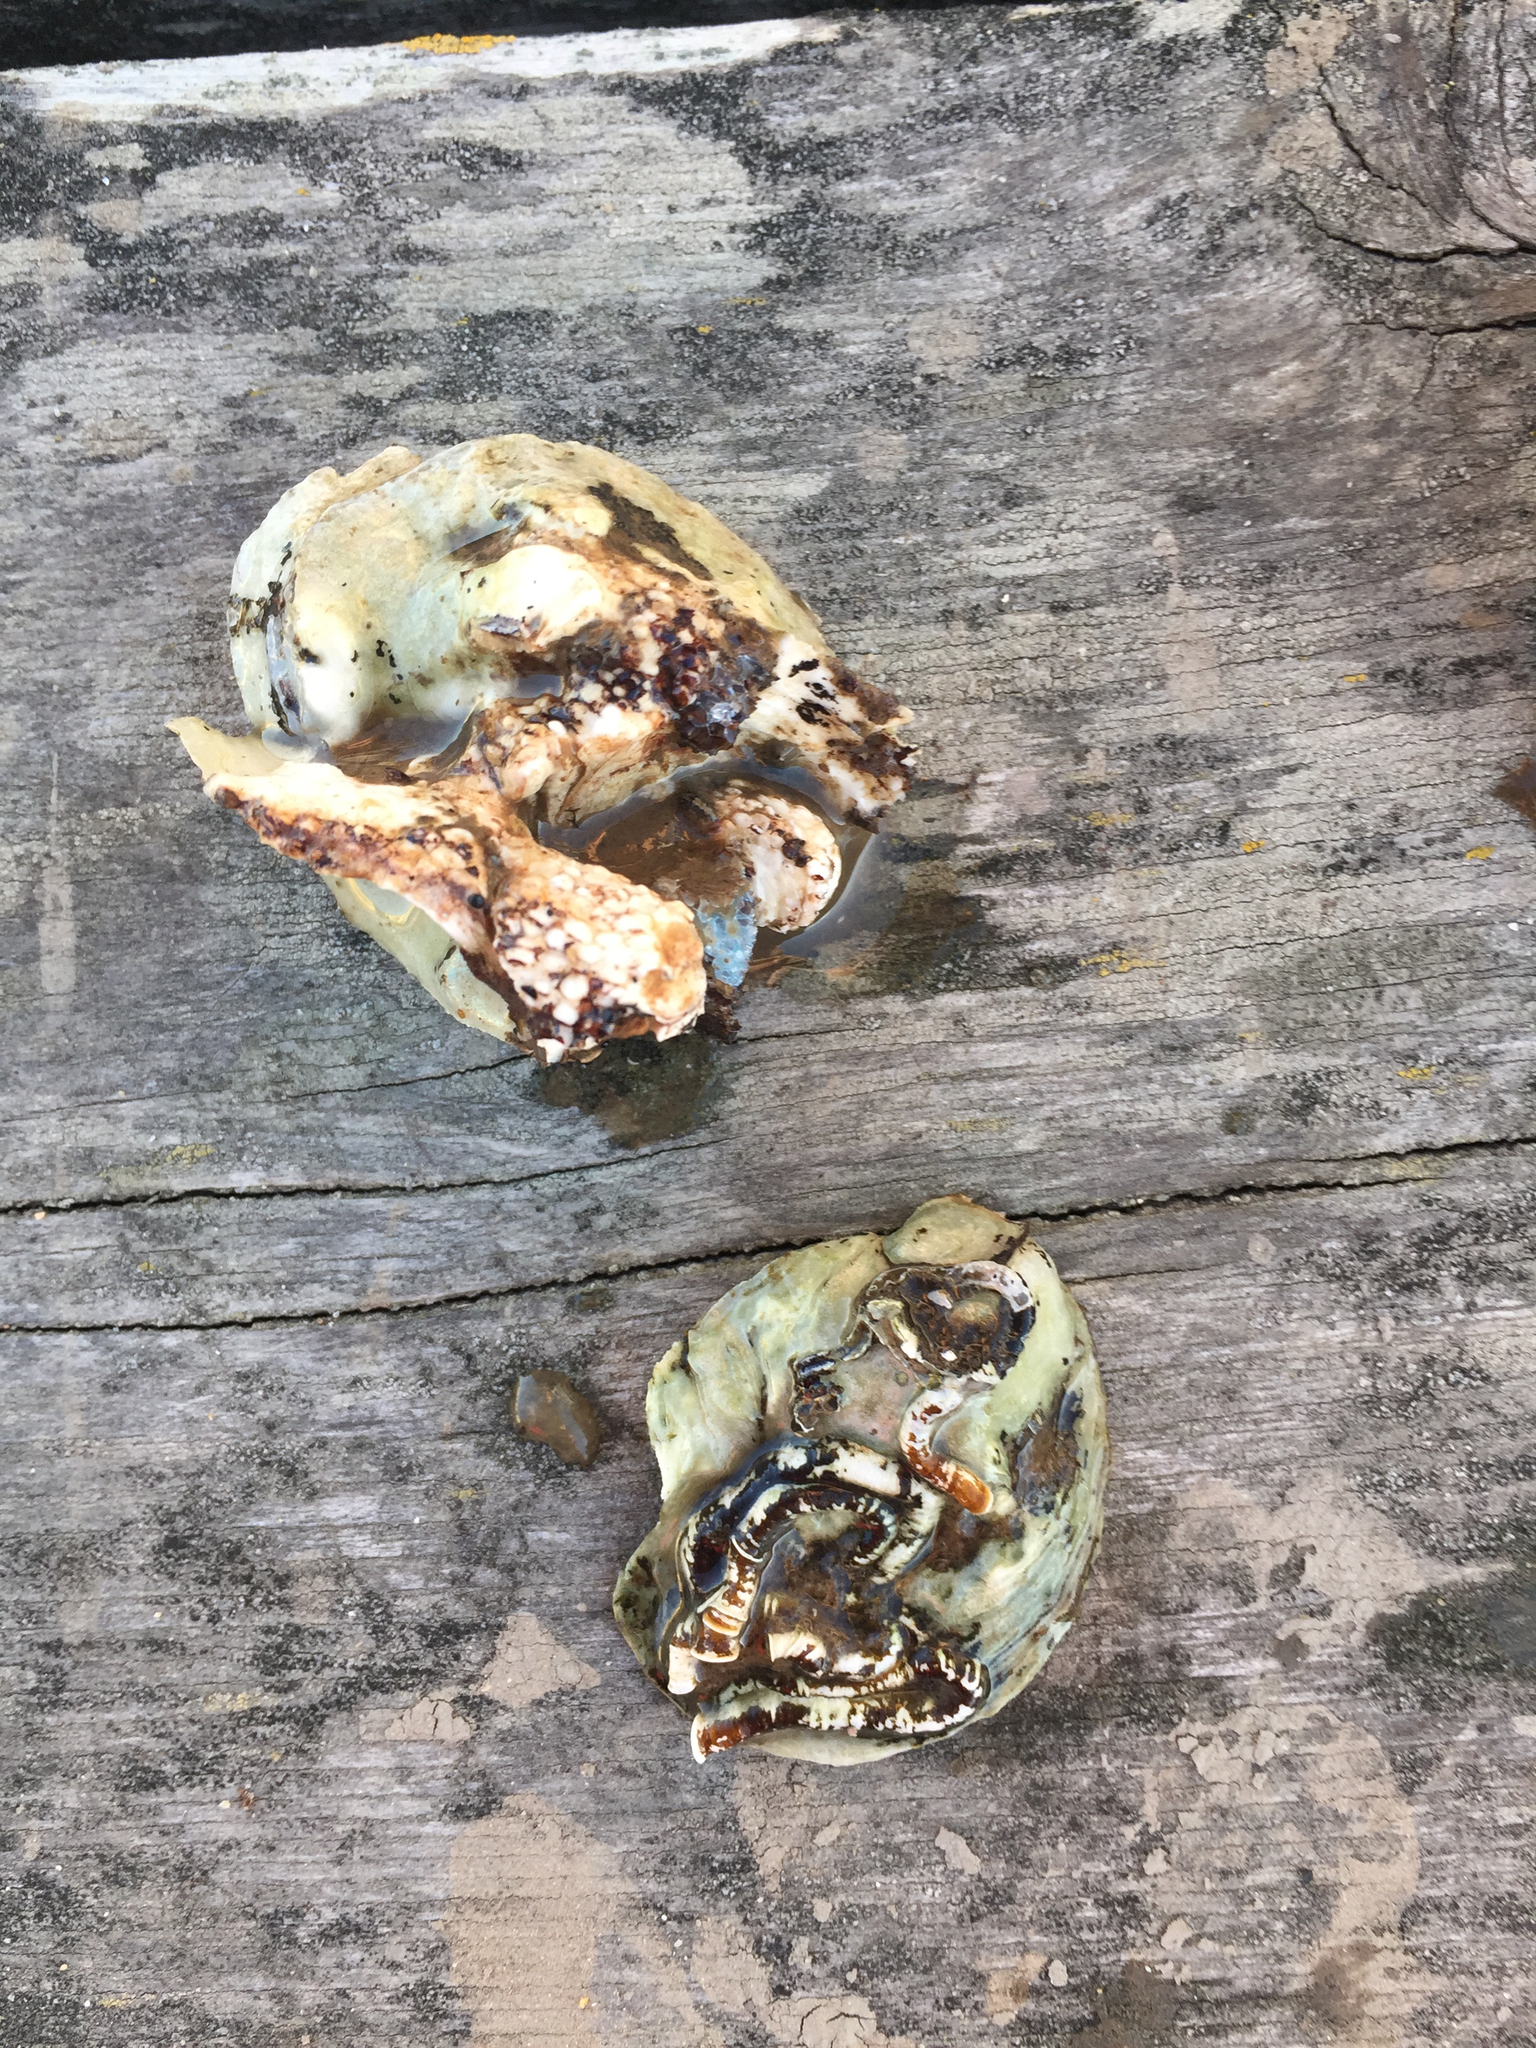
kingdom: Animalia
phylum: Mollusca
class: Bivalvia
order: Ostreida
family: Ostreidae
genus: Ostrea
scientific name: Ostrea lurida
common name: Olympia flat oyster
